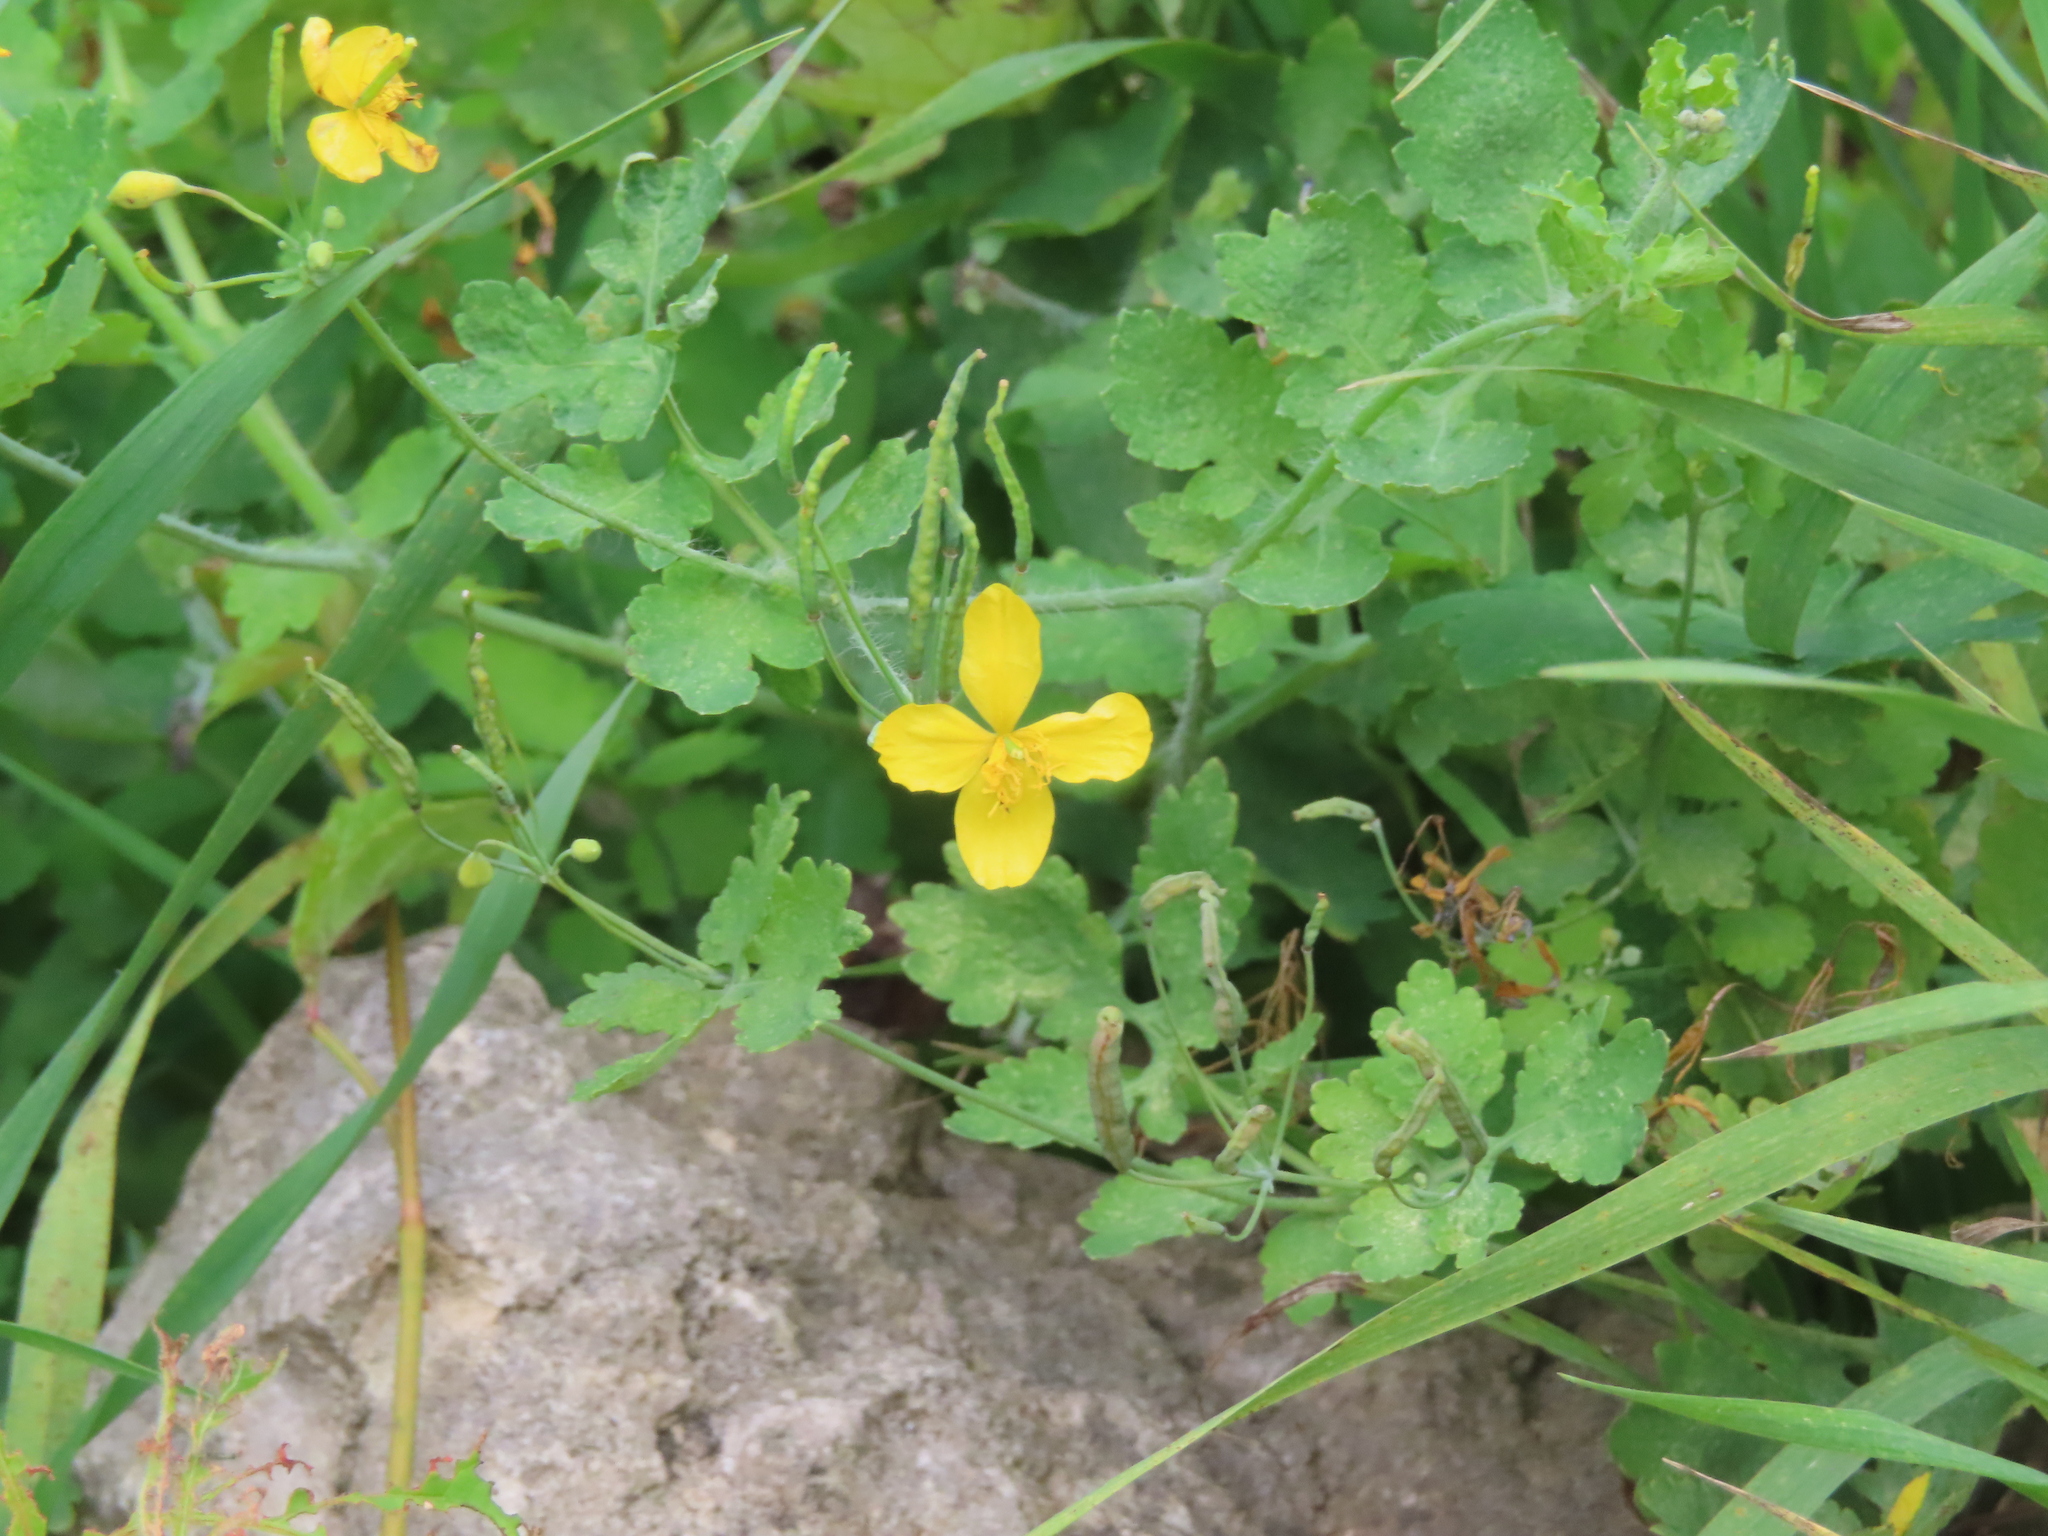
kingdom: Plantae
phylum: Tracheophyta
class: Magnoliopsida
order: Ranunculales
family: Papaveraceae
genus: Chelidonium
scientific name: Chelidonium majus
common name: Greater celandine
